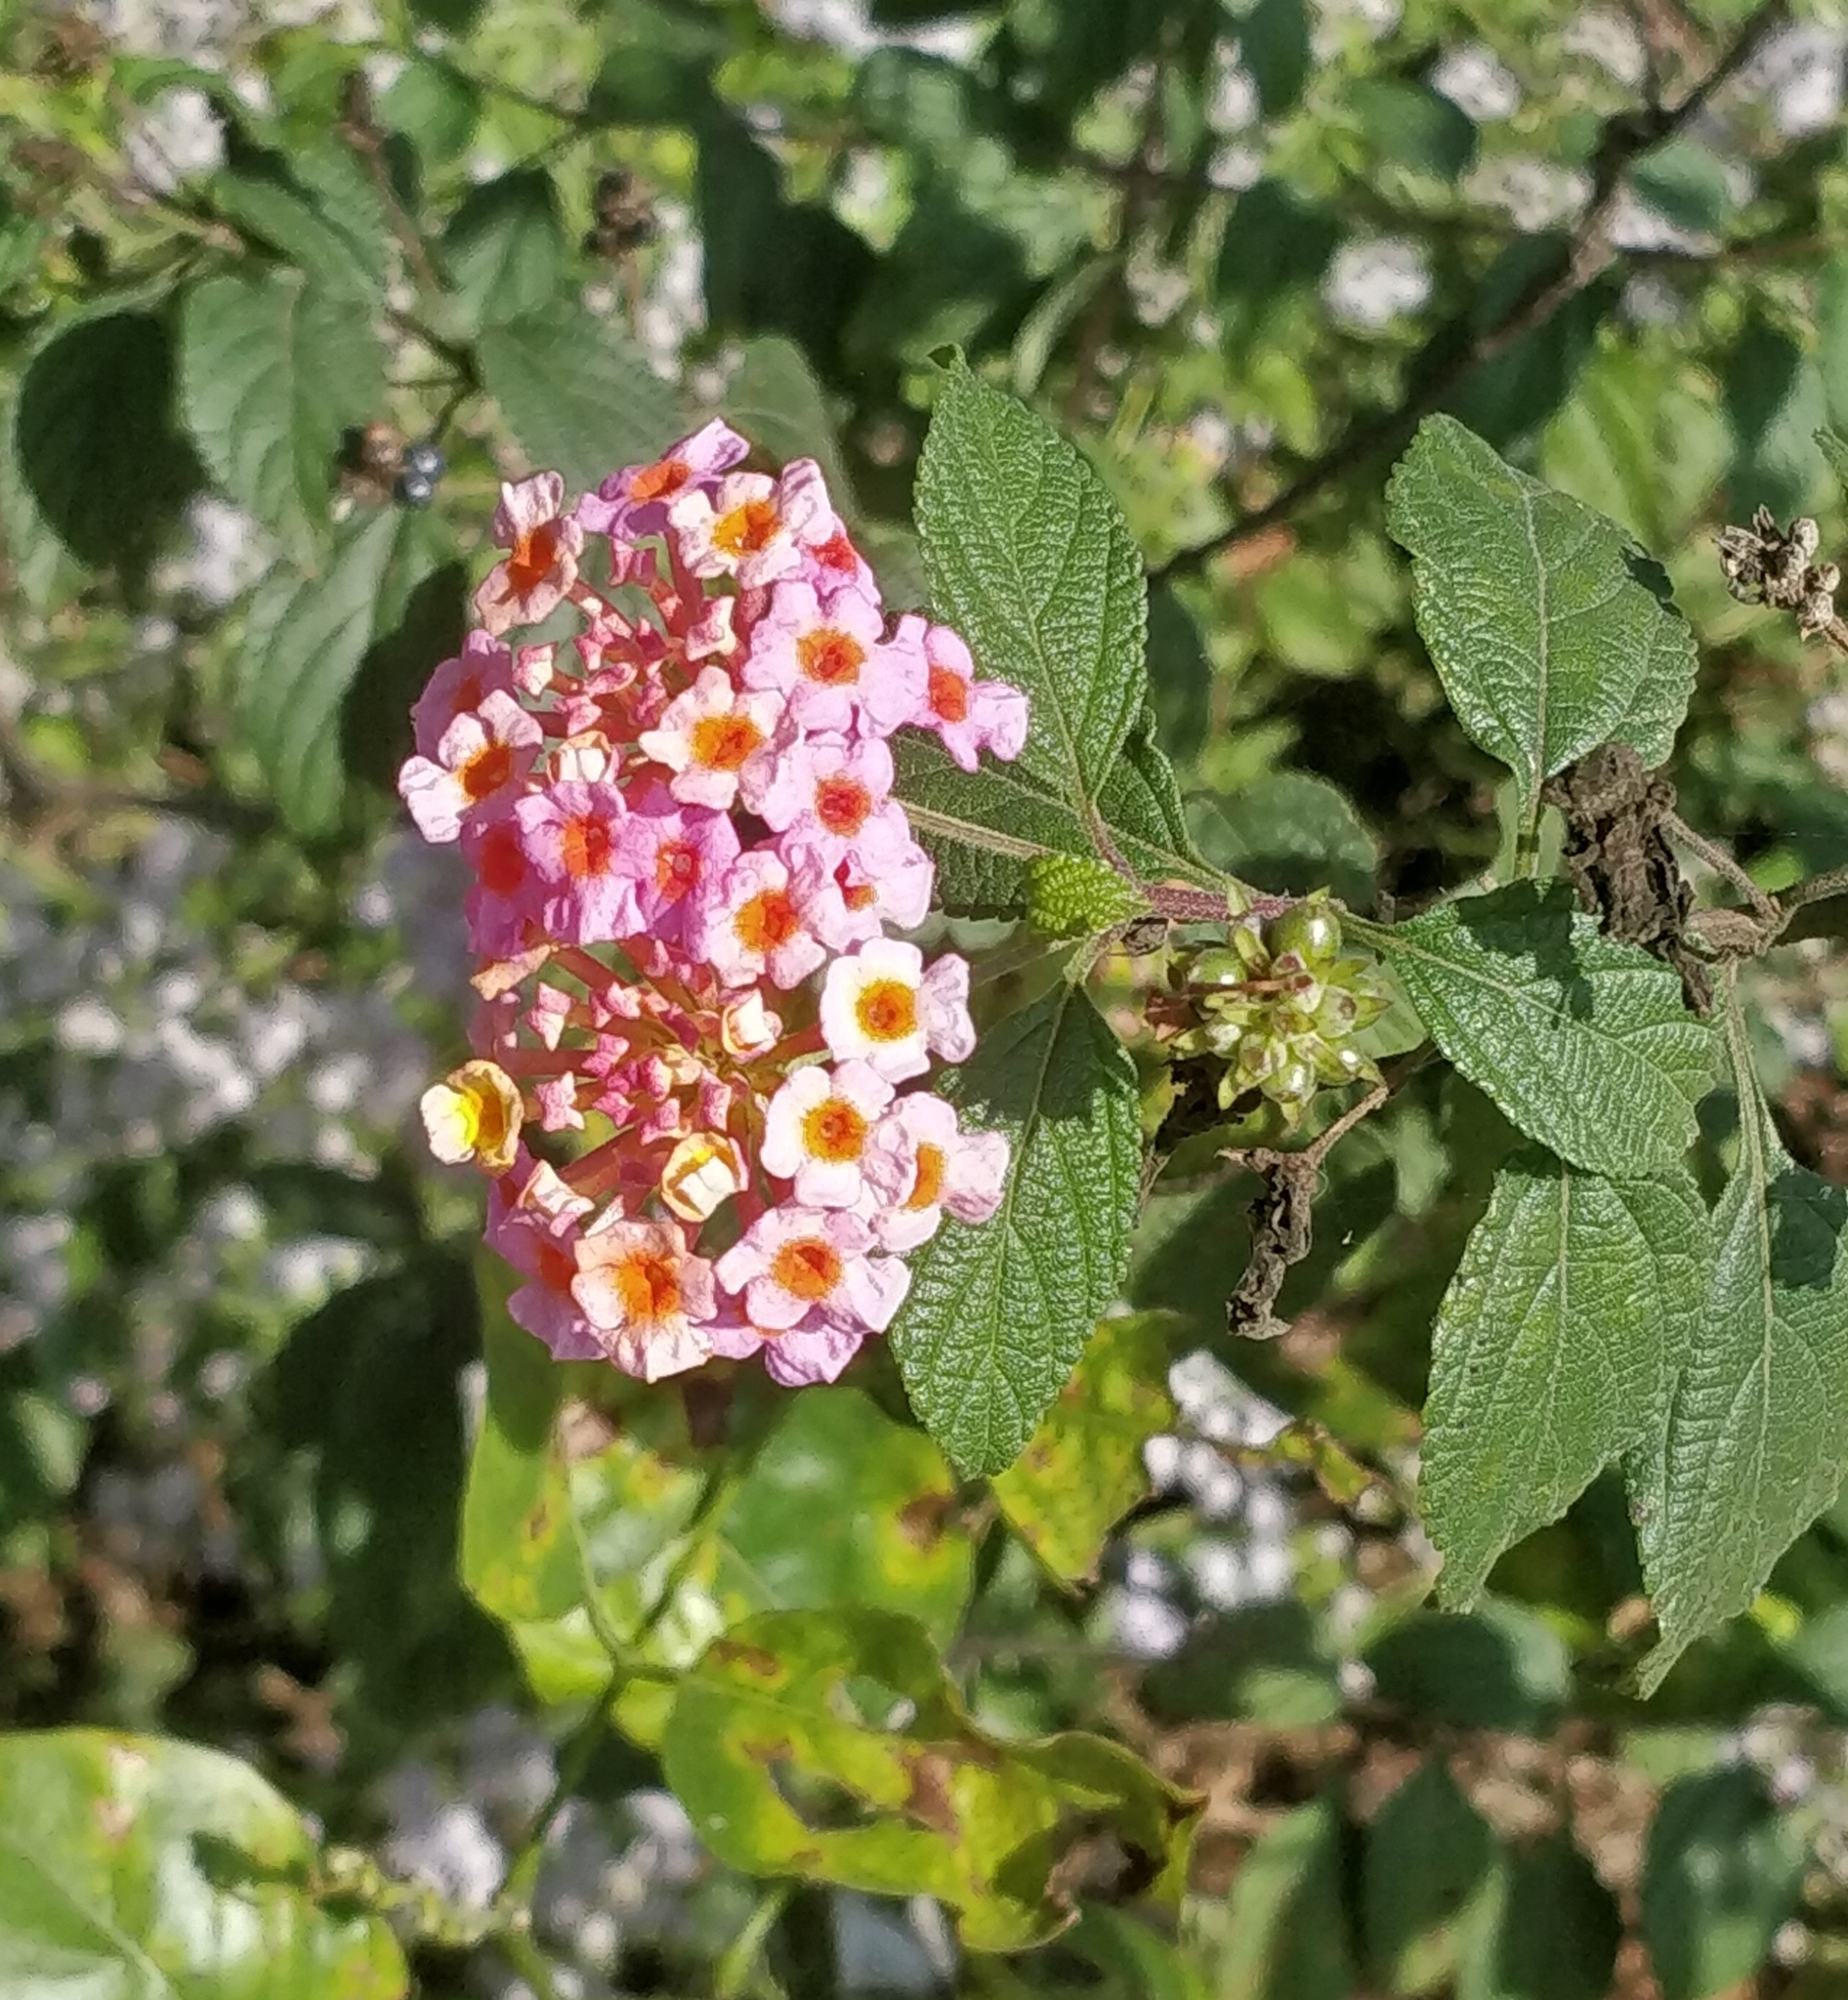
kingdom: Plantae
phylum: Tracheophyta
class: Magnoliopsida
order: Lamiales
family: Verbenaceae
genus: Lantana
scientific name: Lantana camara
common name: Lantana
